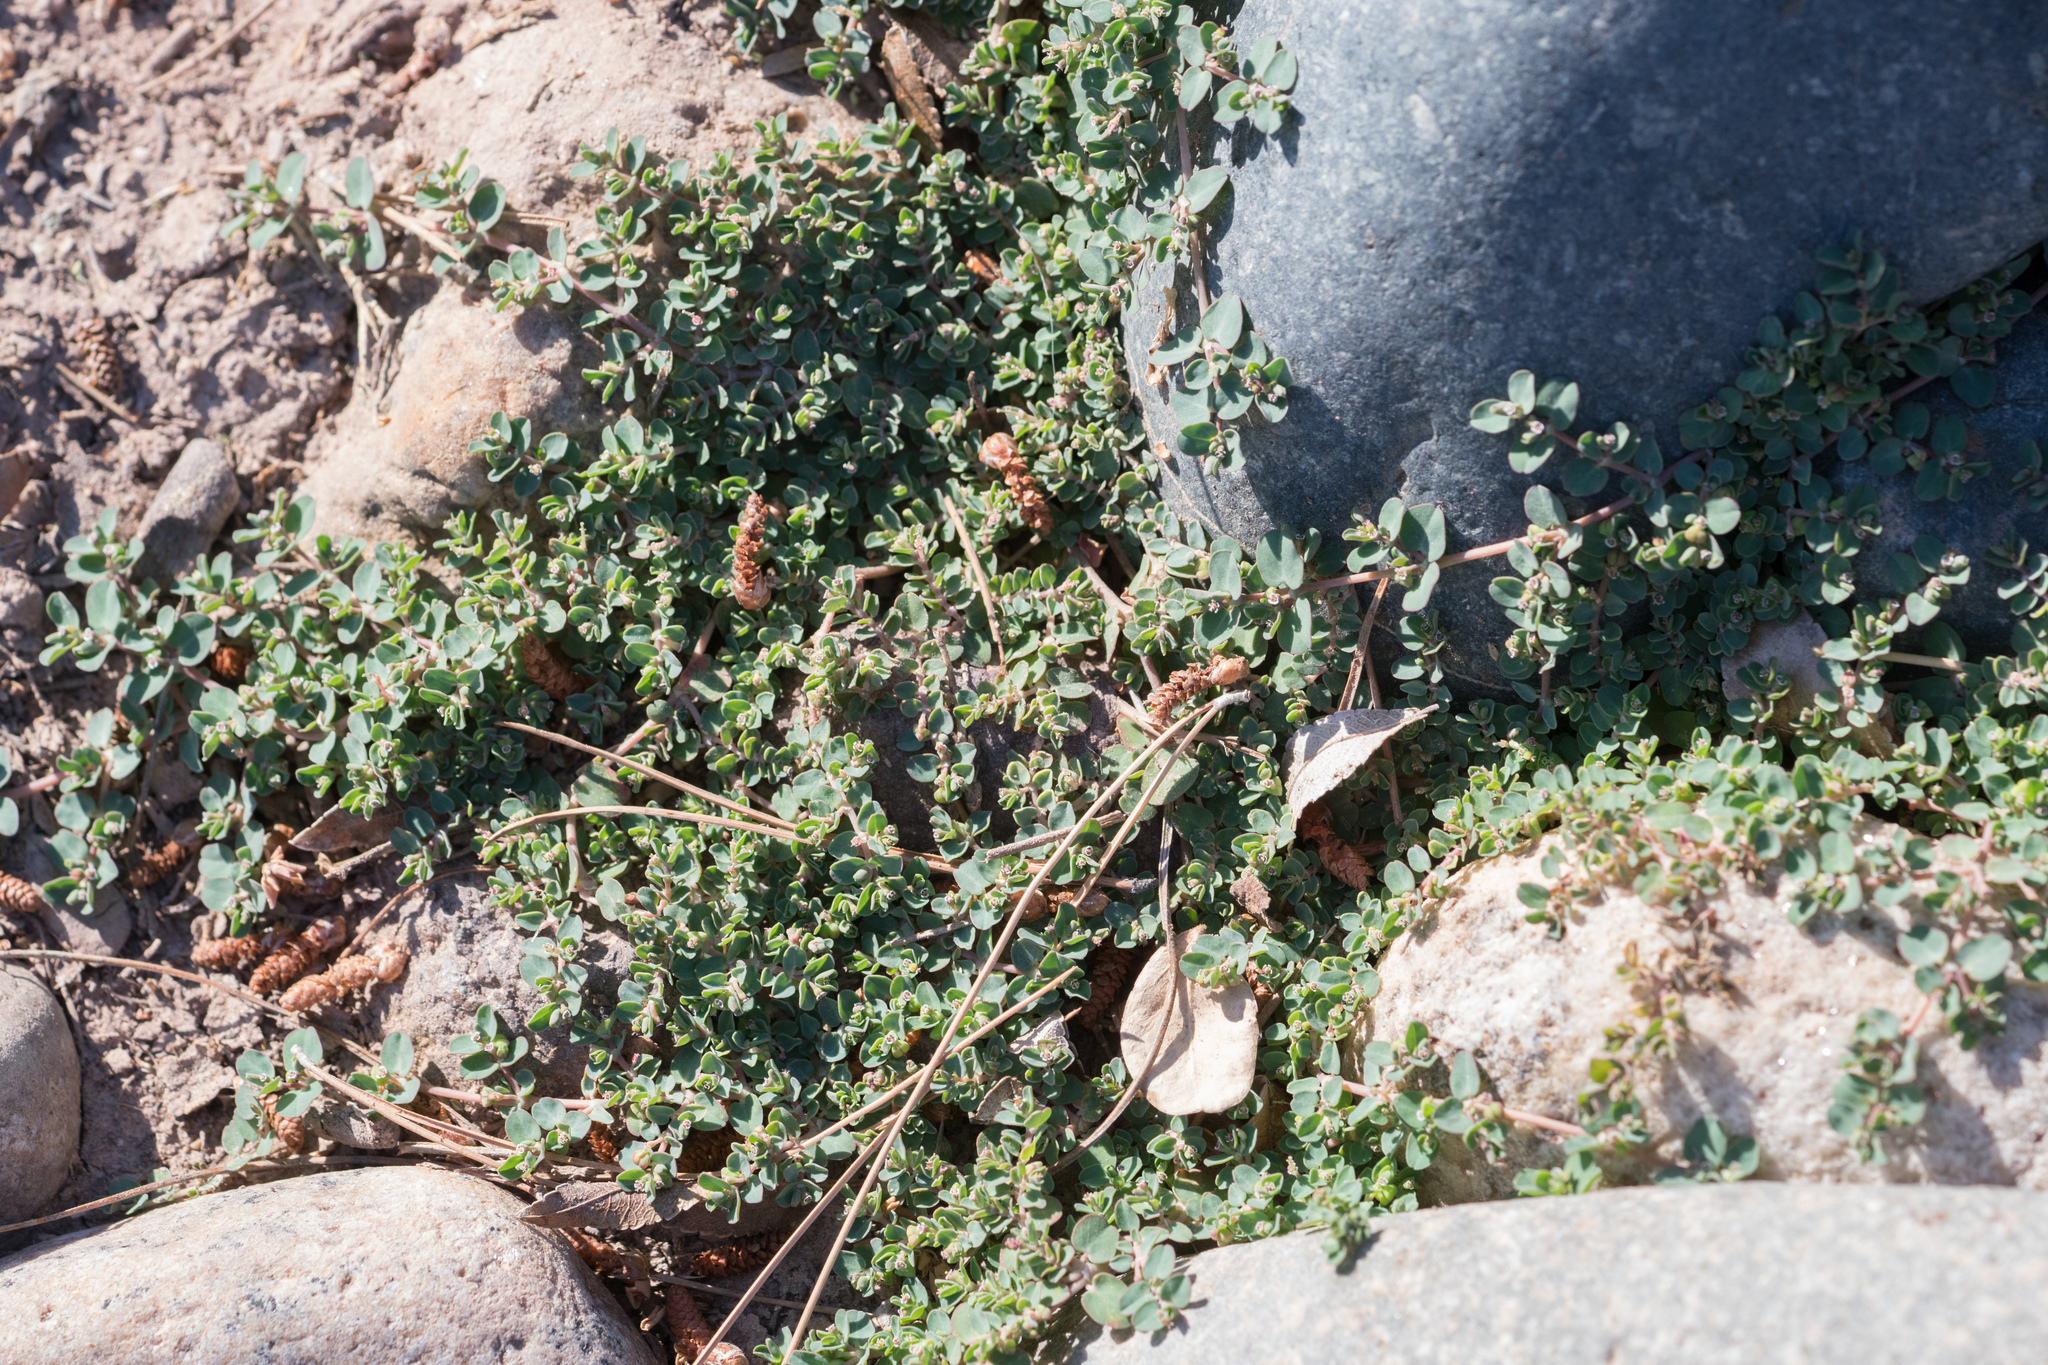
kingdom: Plantae
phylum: Tracheophyta
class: Magnoliopsida
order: Malpighiales
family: Euphorbiaceae
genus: Euphorbia
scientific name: Euphorbia serpens
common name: Matted sandmat
